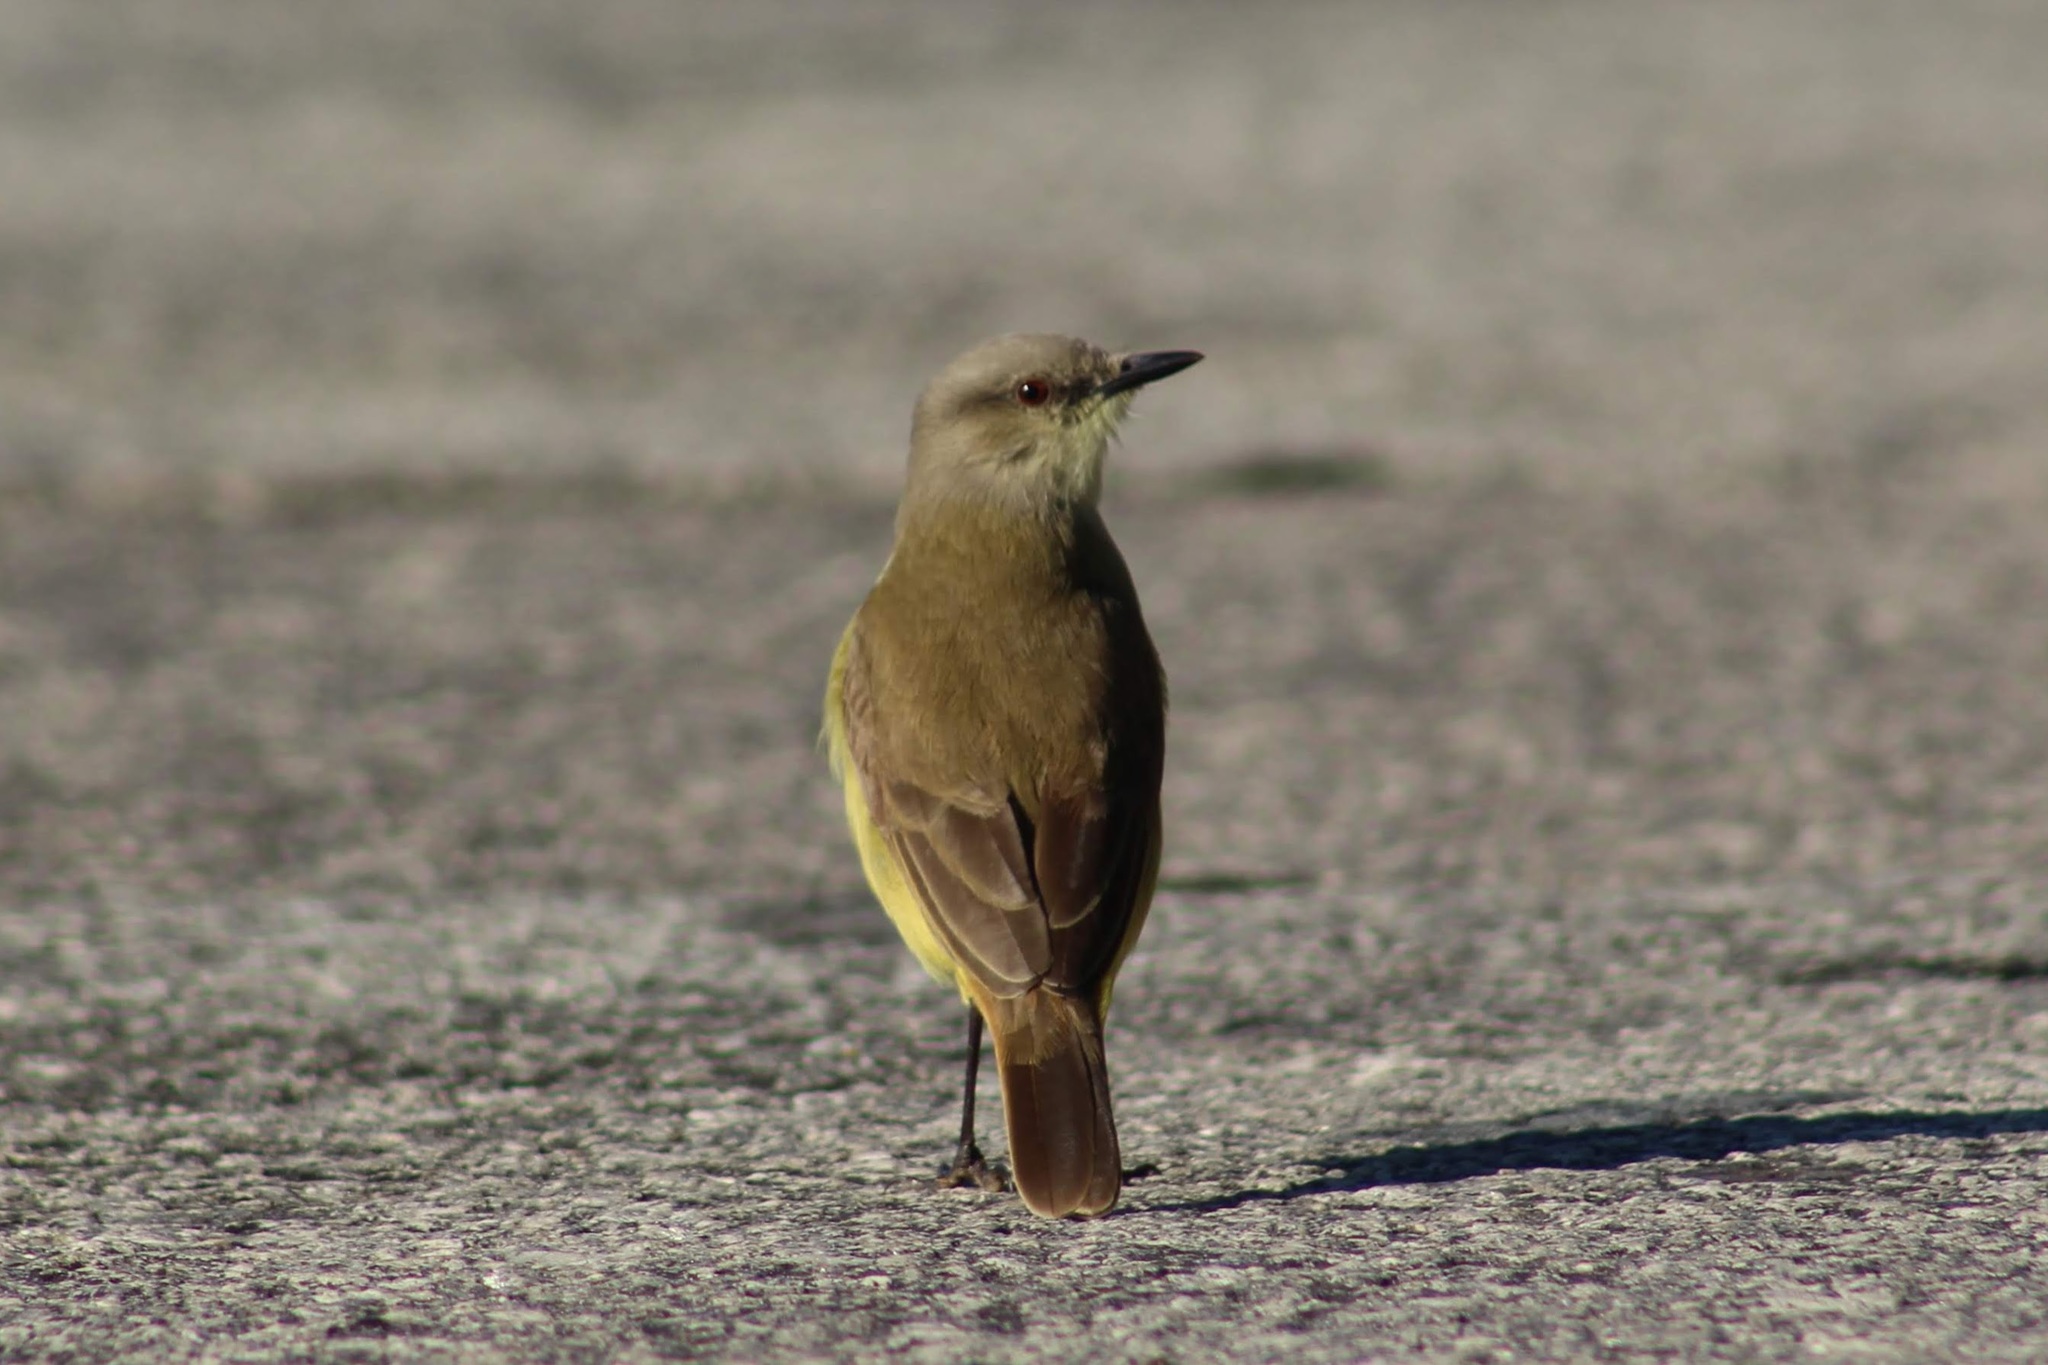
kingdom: Animalia
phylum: Chordata
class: Aves
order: Passeriformes
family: Tyrannidae
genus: Machetornis
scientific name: Machetornis rixosa
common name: Cattle tyrant
